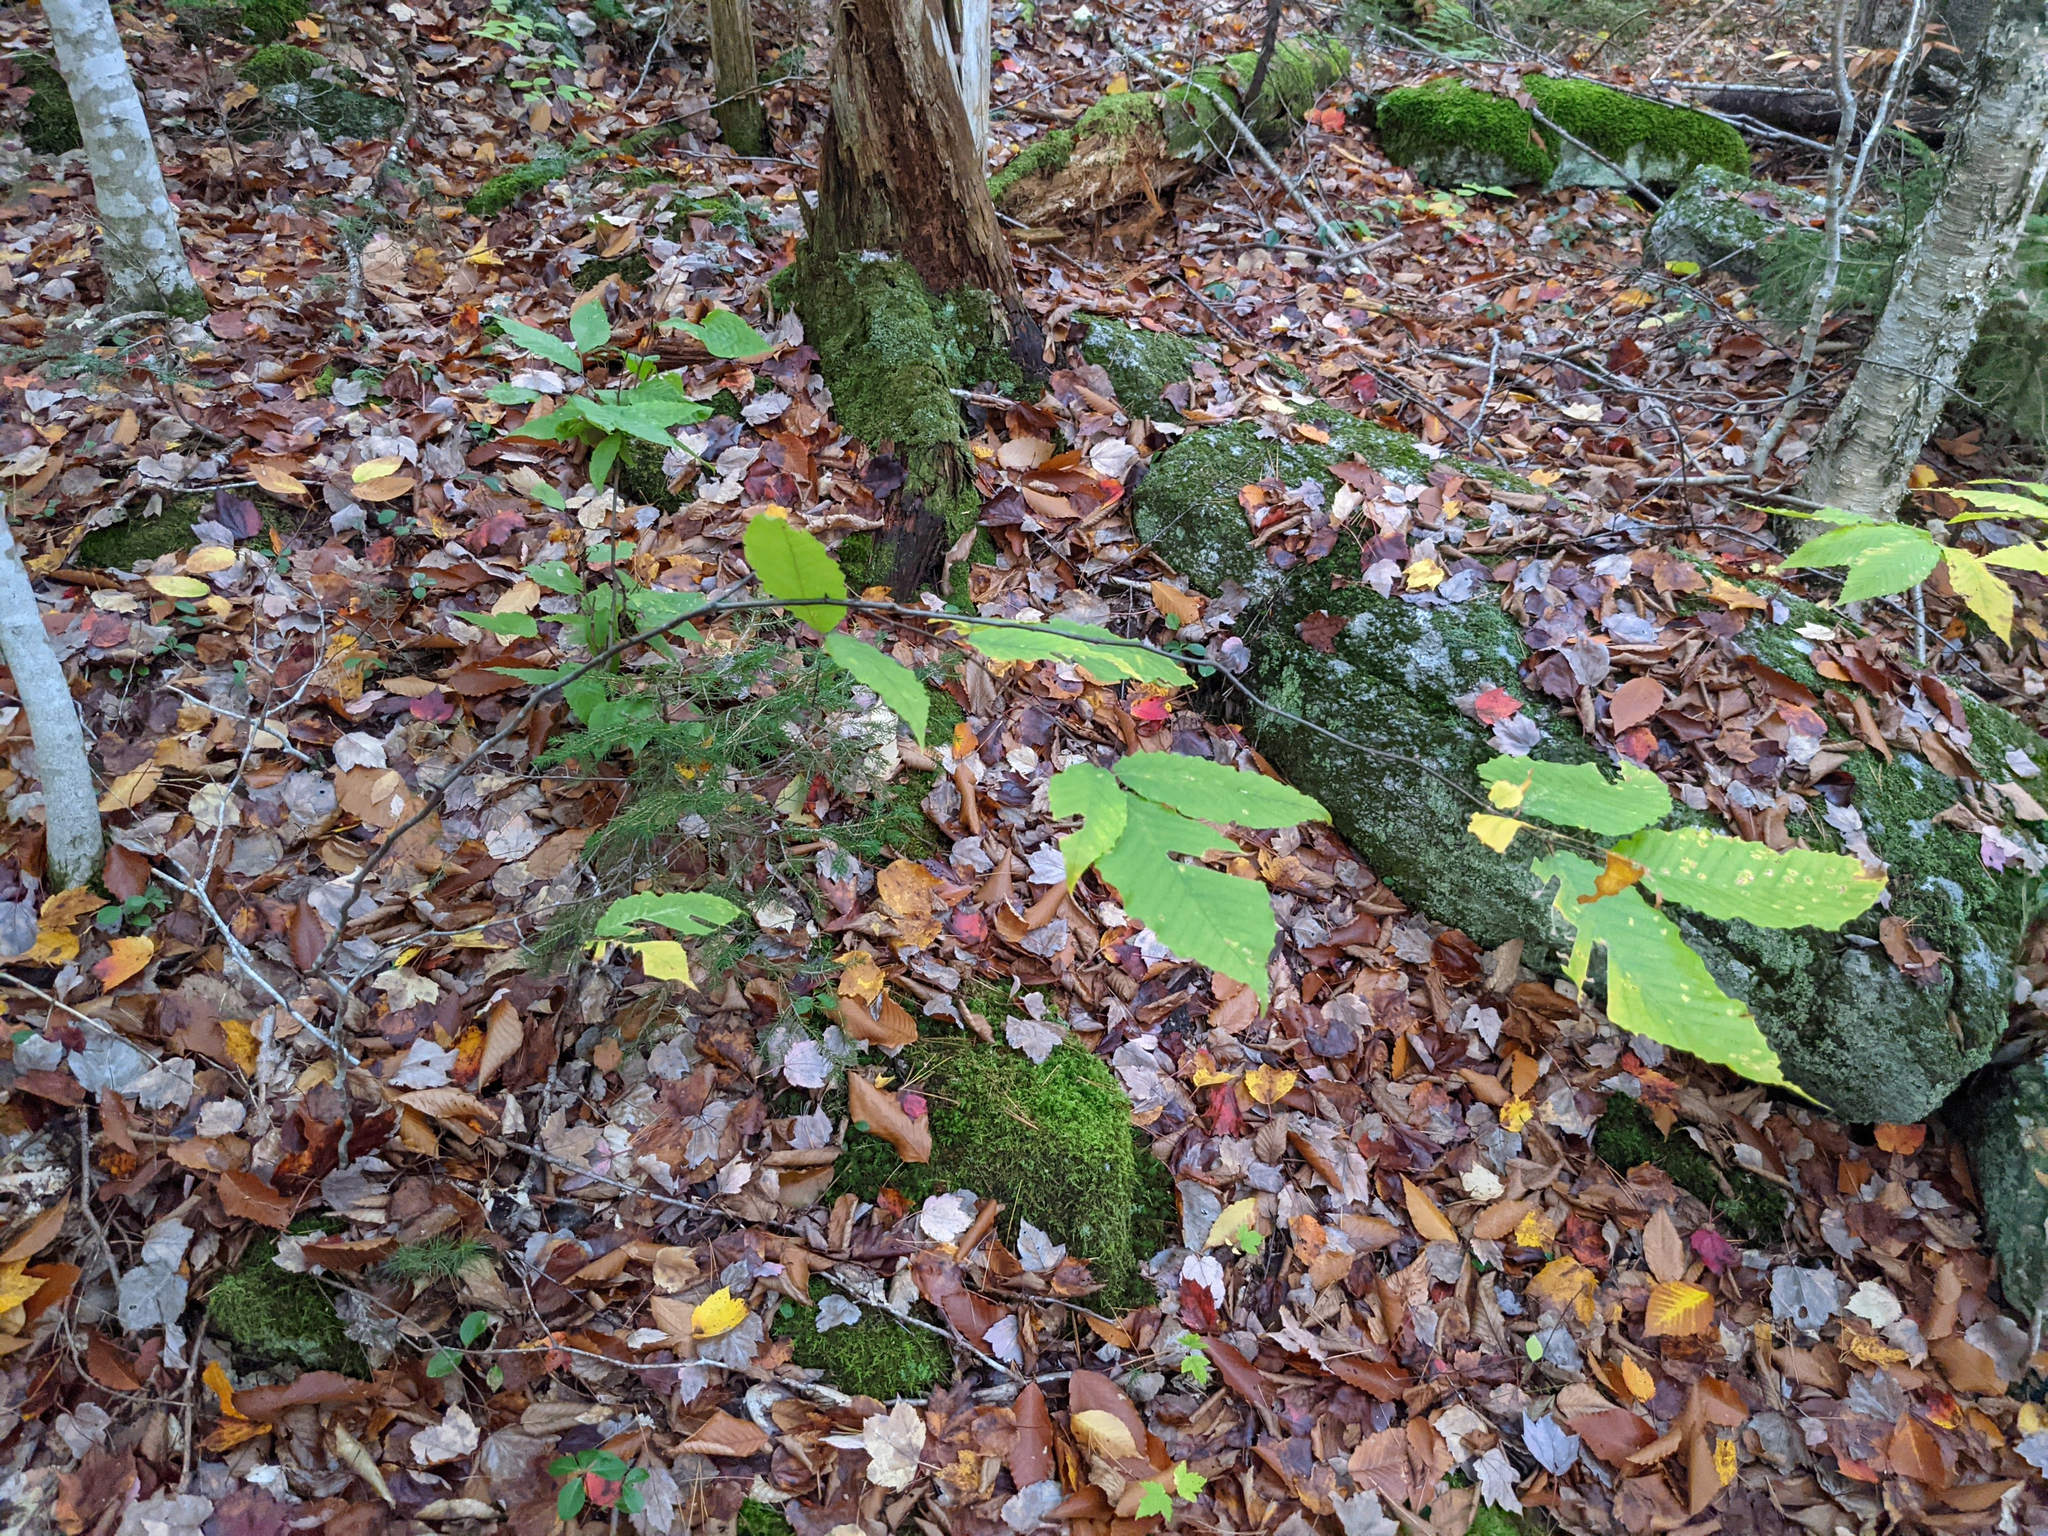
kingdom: Plantae
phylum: Tracheophyta
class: Magnoliopsida
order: Fagales
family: Fagaceae
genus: Fagus
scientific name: Fagus grandifolia
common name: American beech
